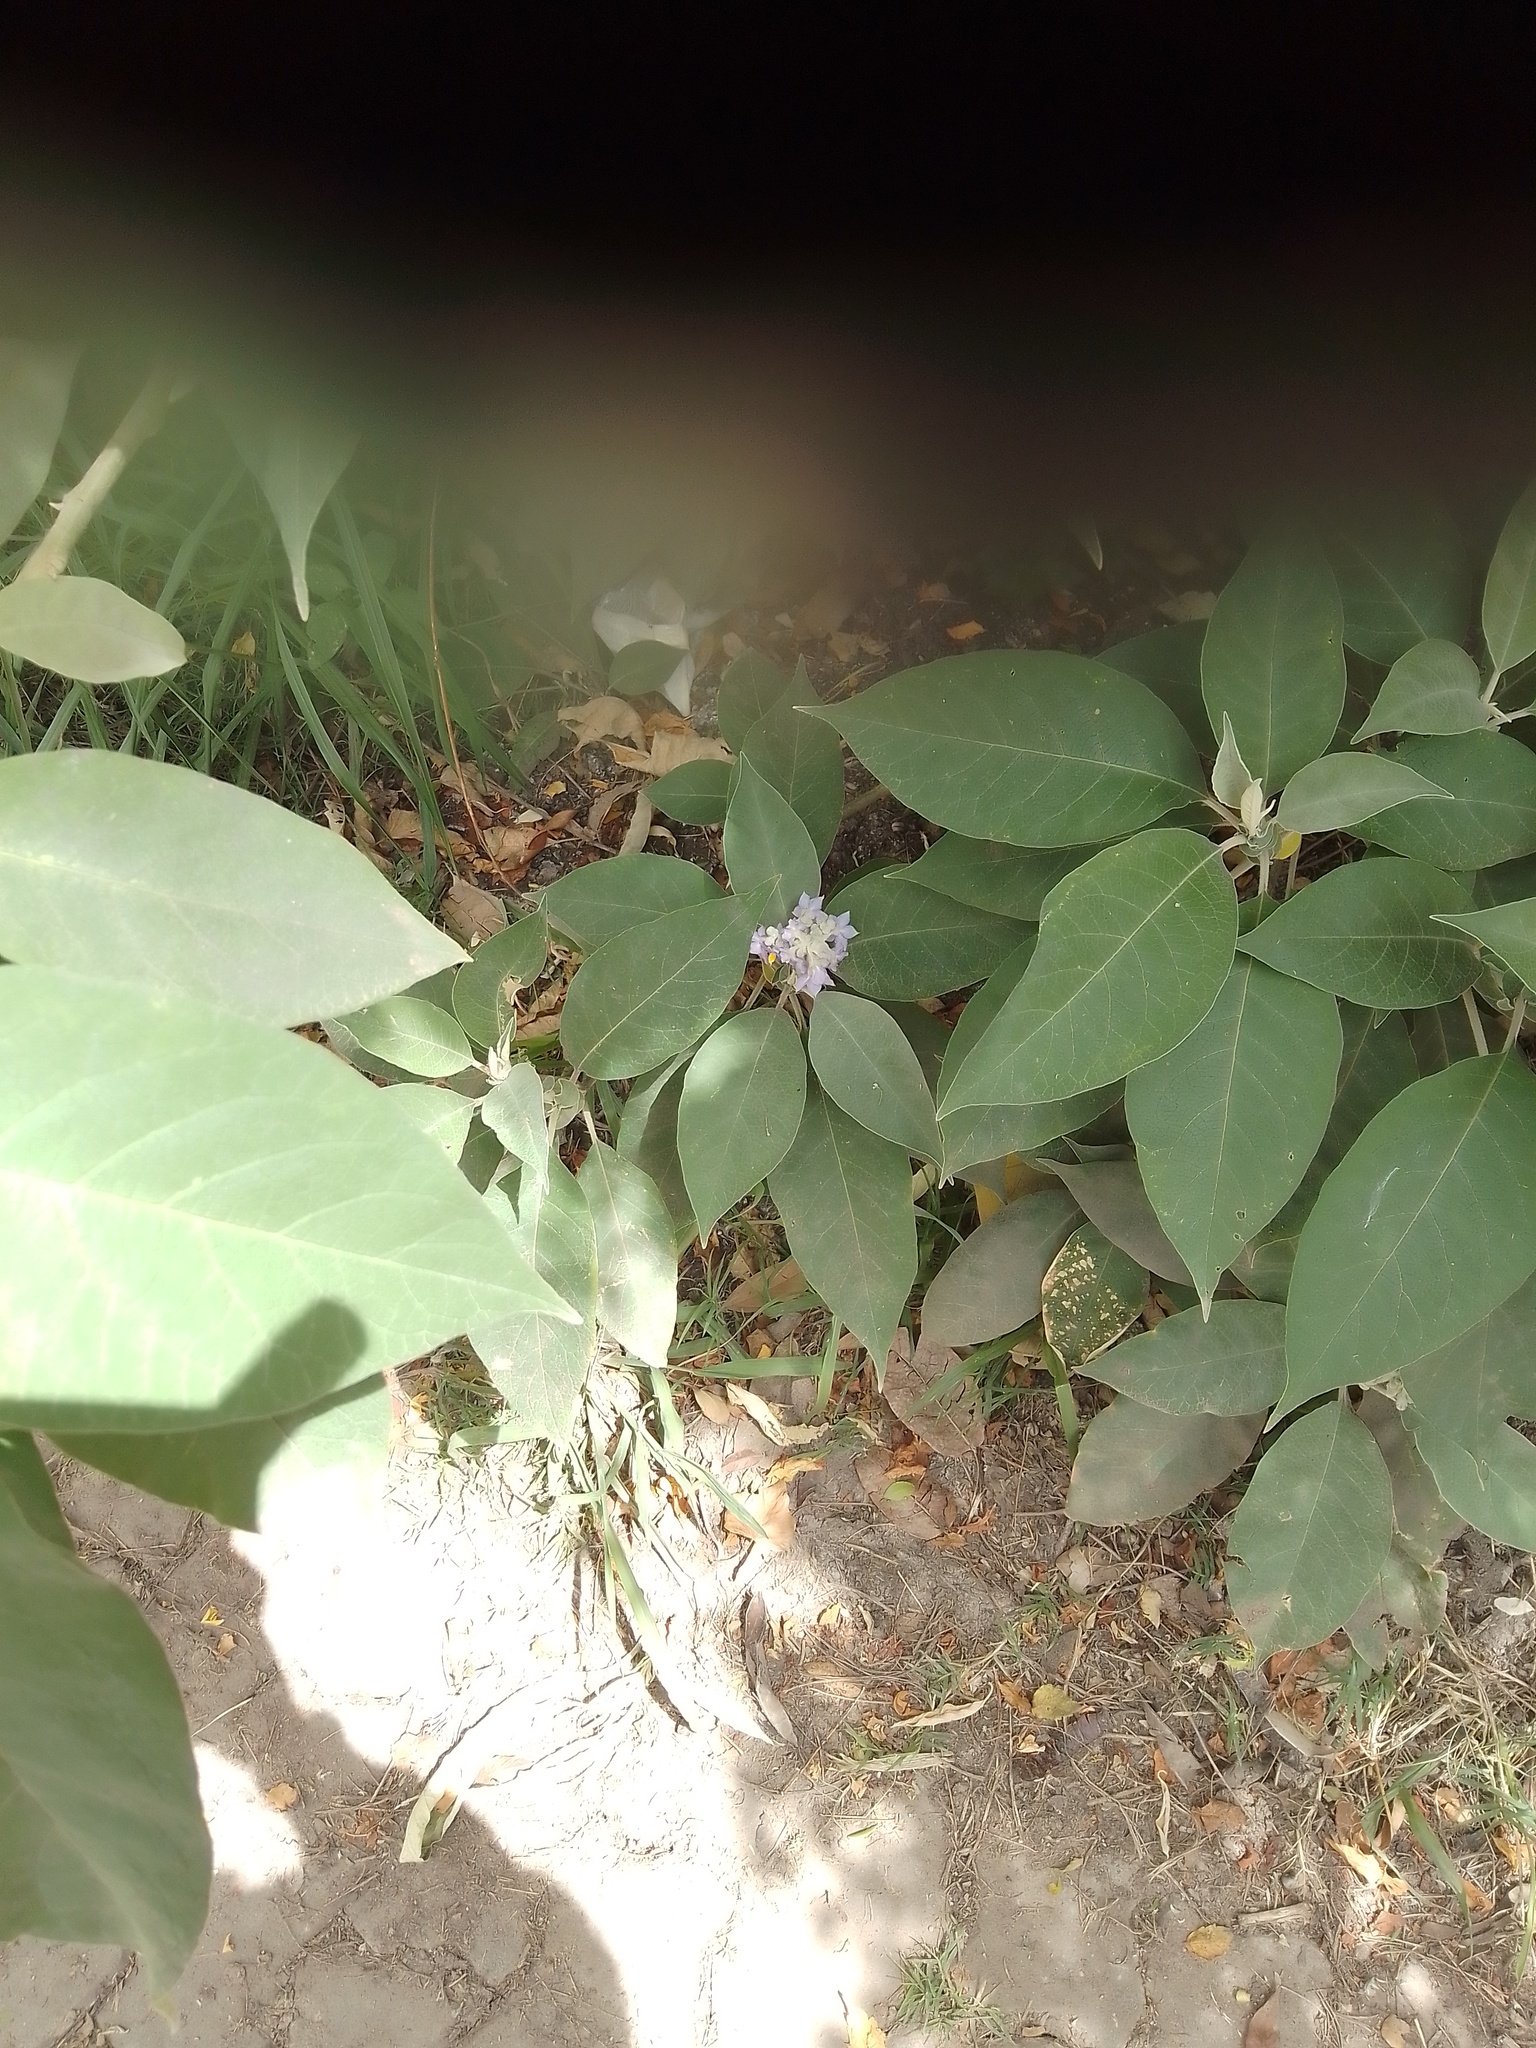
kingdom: Plantae
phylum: Tracheophyta
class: Magnoliopsida
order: Solanales
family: Solanaceae
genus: Solanum
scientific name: Solanum granulosoleprosum
